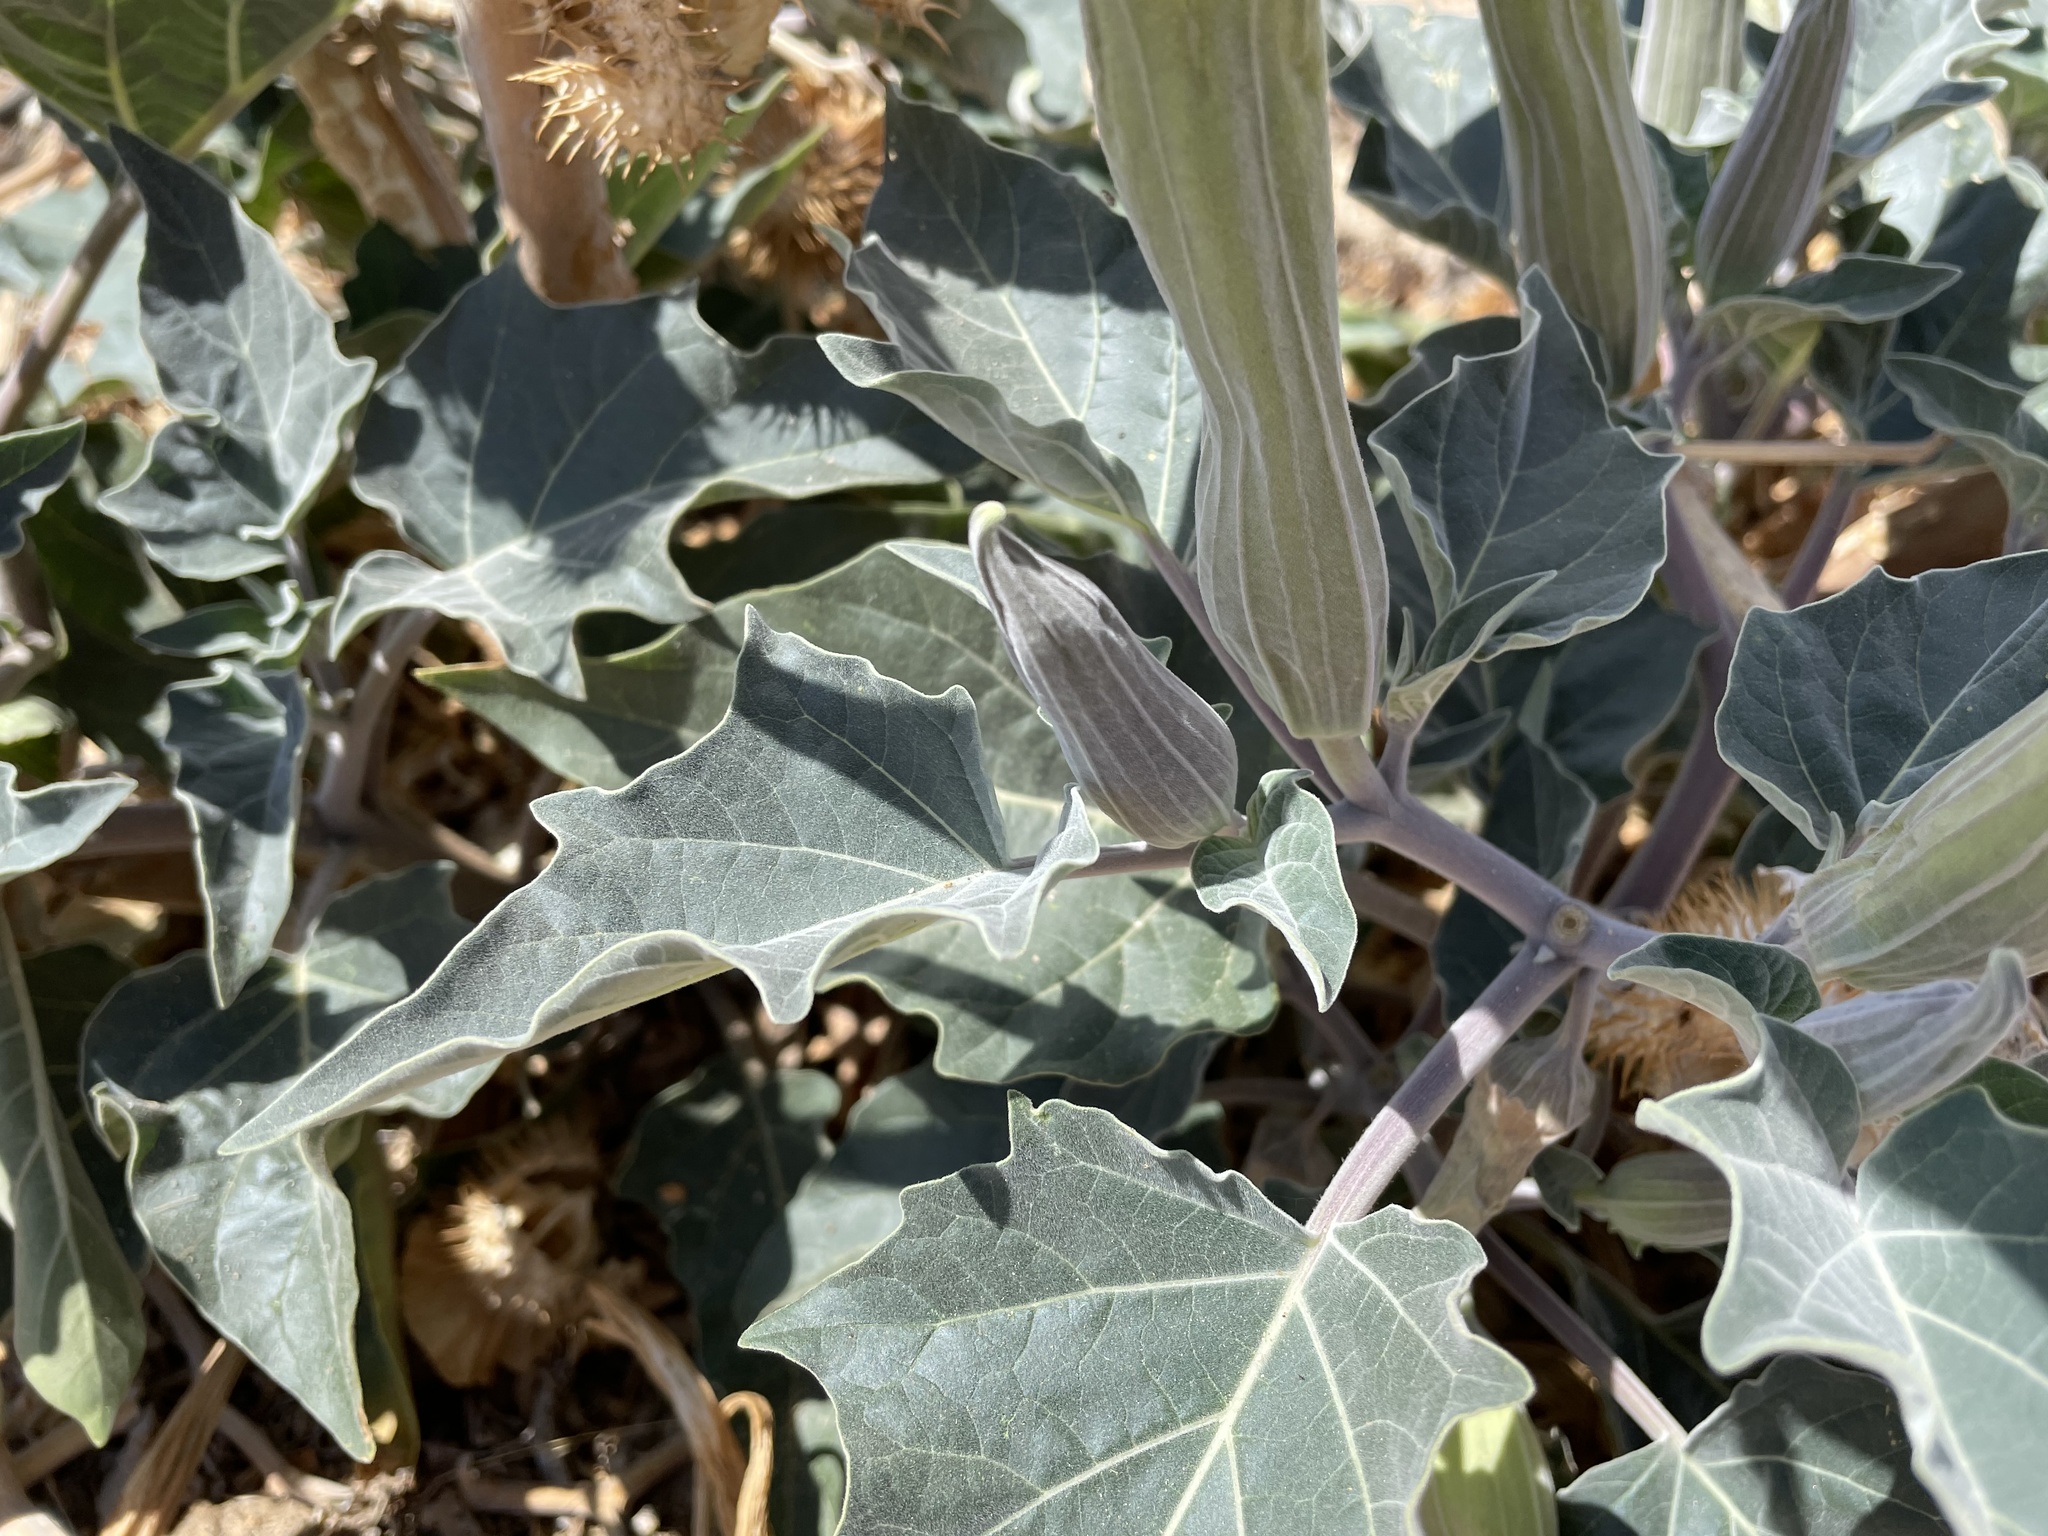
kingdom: Plantae
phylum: Tracheophyta
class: Magnoliopsida
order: Solanales
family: Solanaceae
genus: Datura
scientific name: Datura wrightii
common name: Sacred thorn-apple
